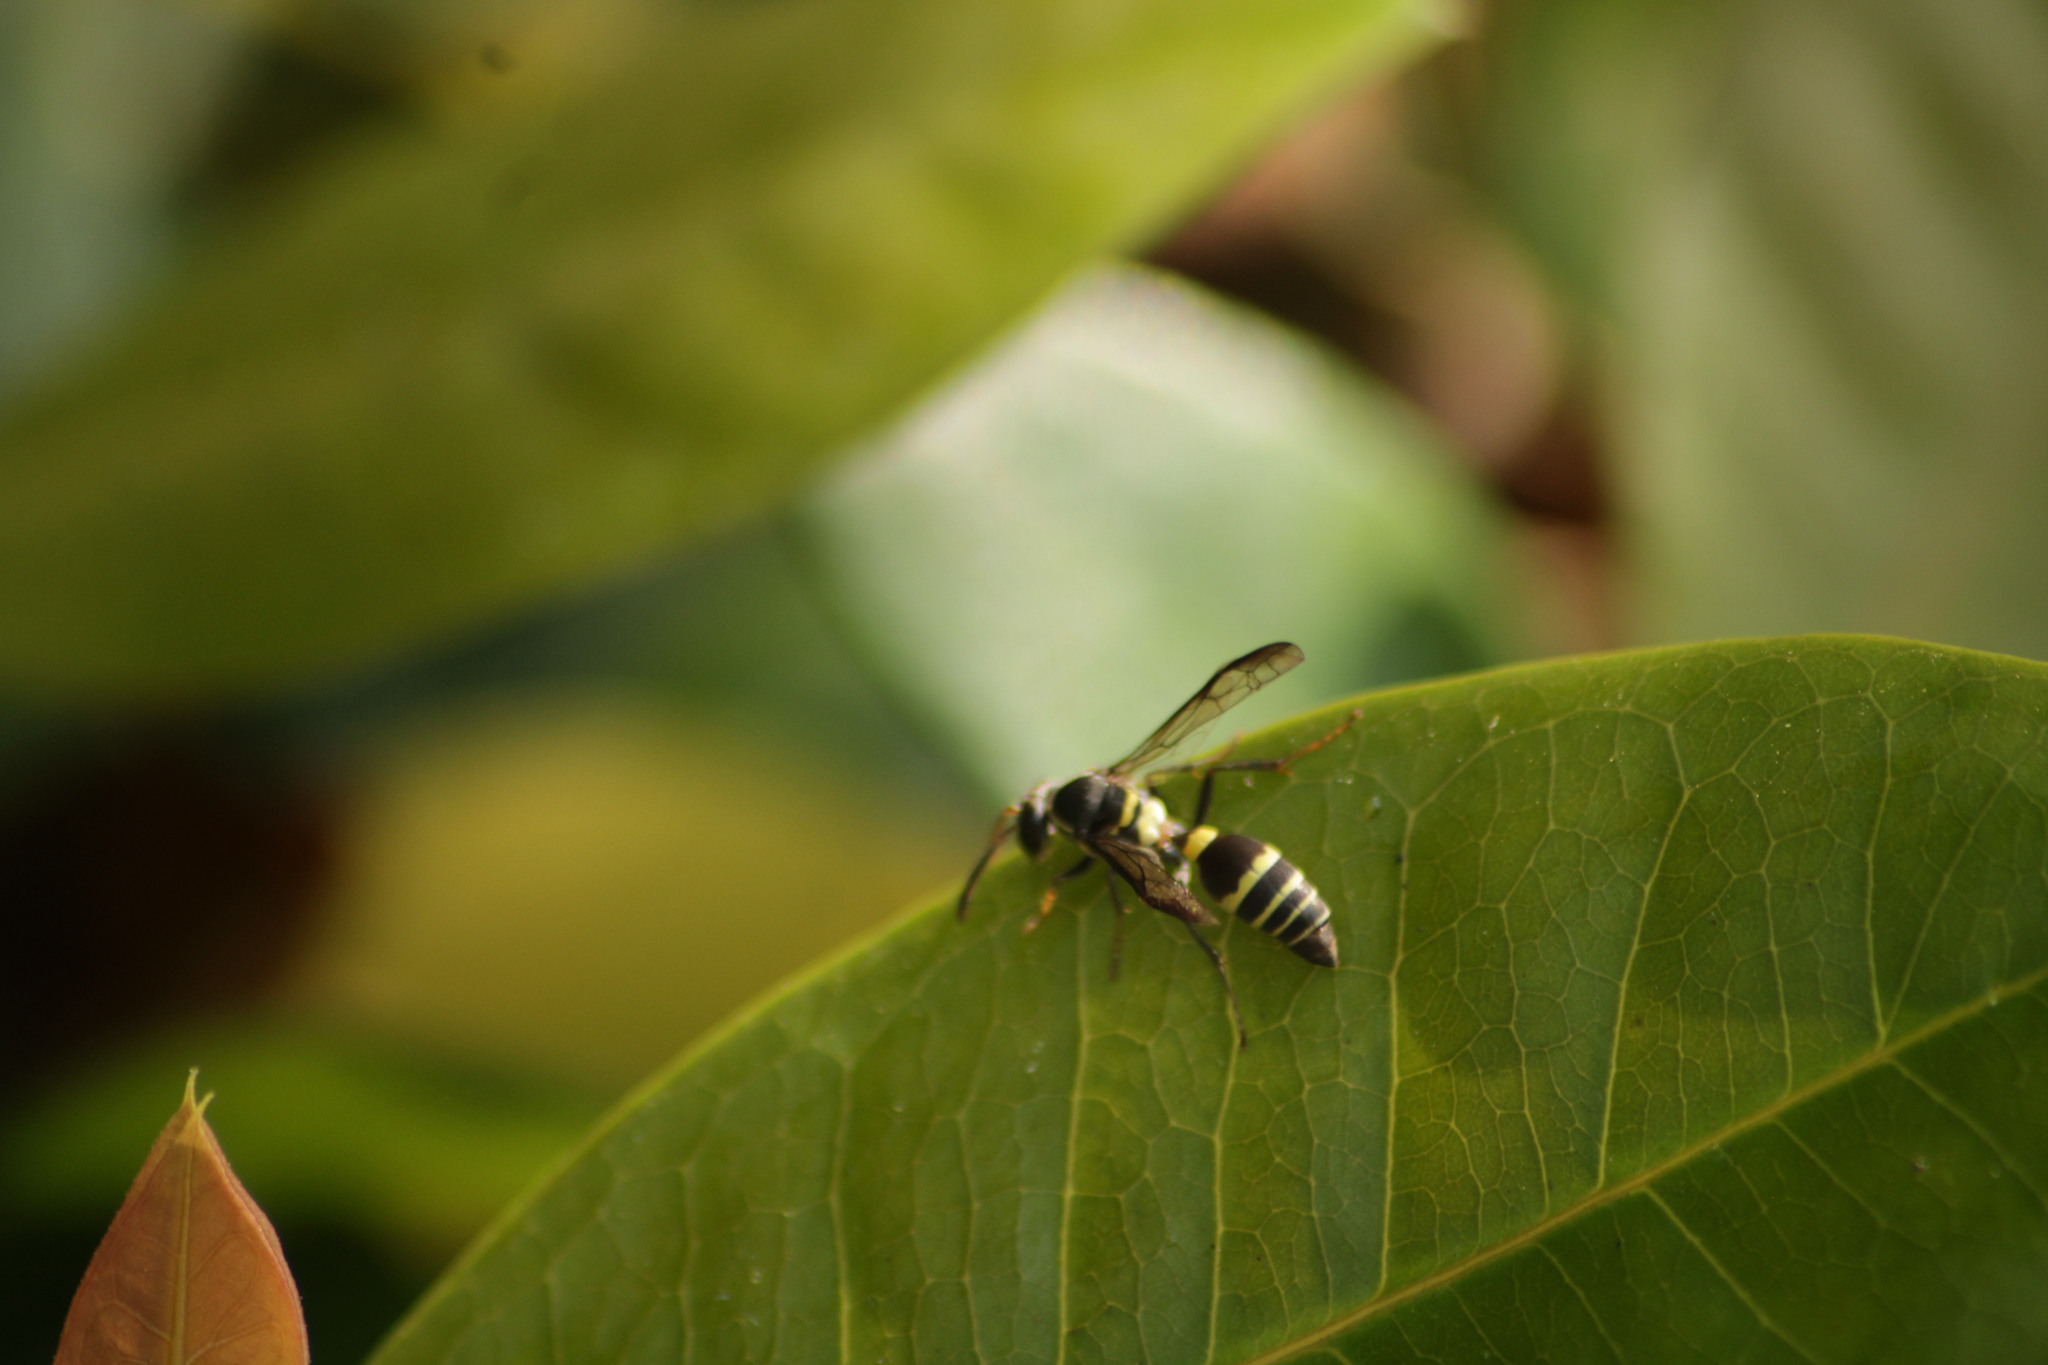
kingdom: Animalia
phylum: Arthropoda
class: Insecta
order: Hymenoptera
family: Eumenidae
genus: Polybia
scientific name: Polybia occidentalis
